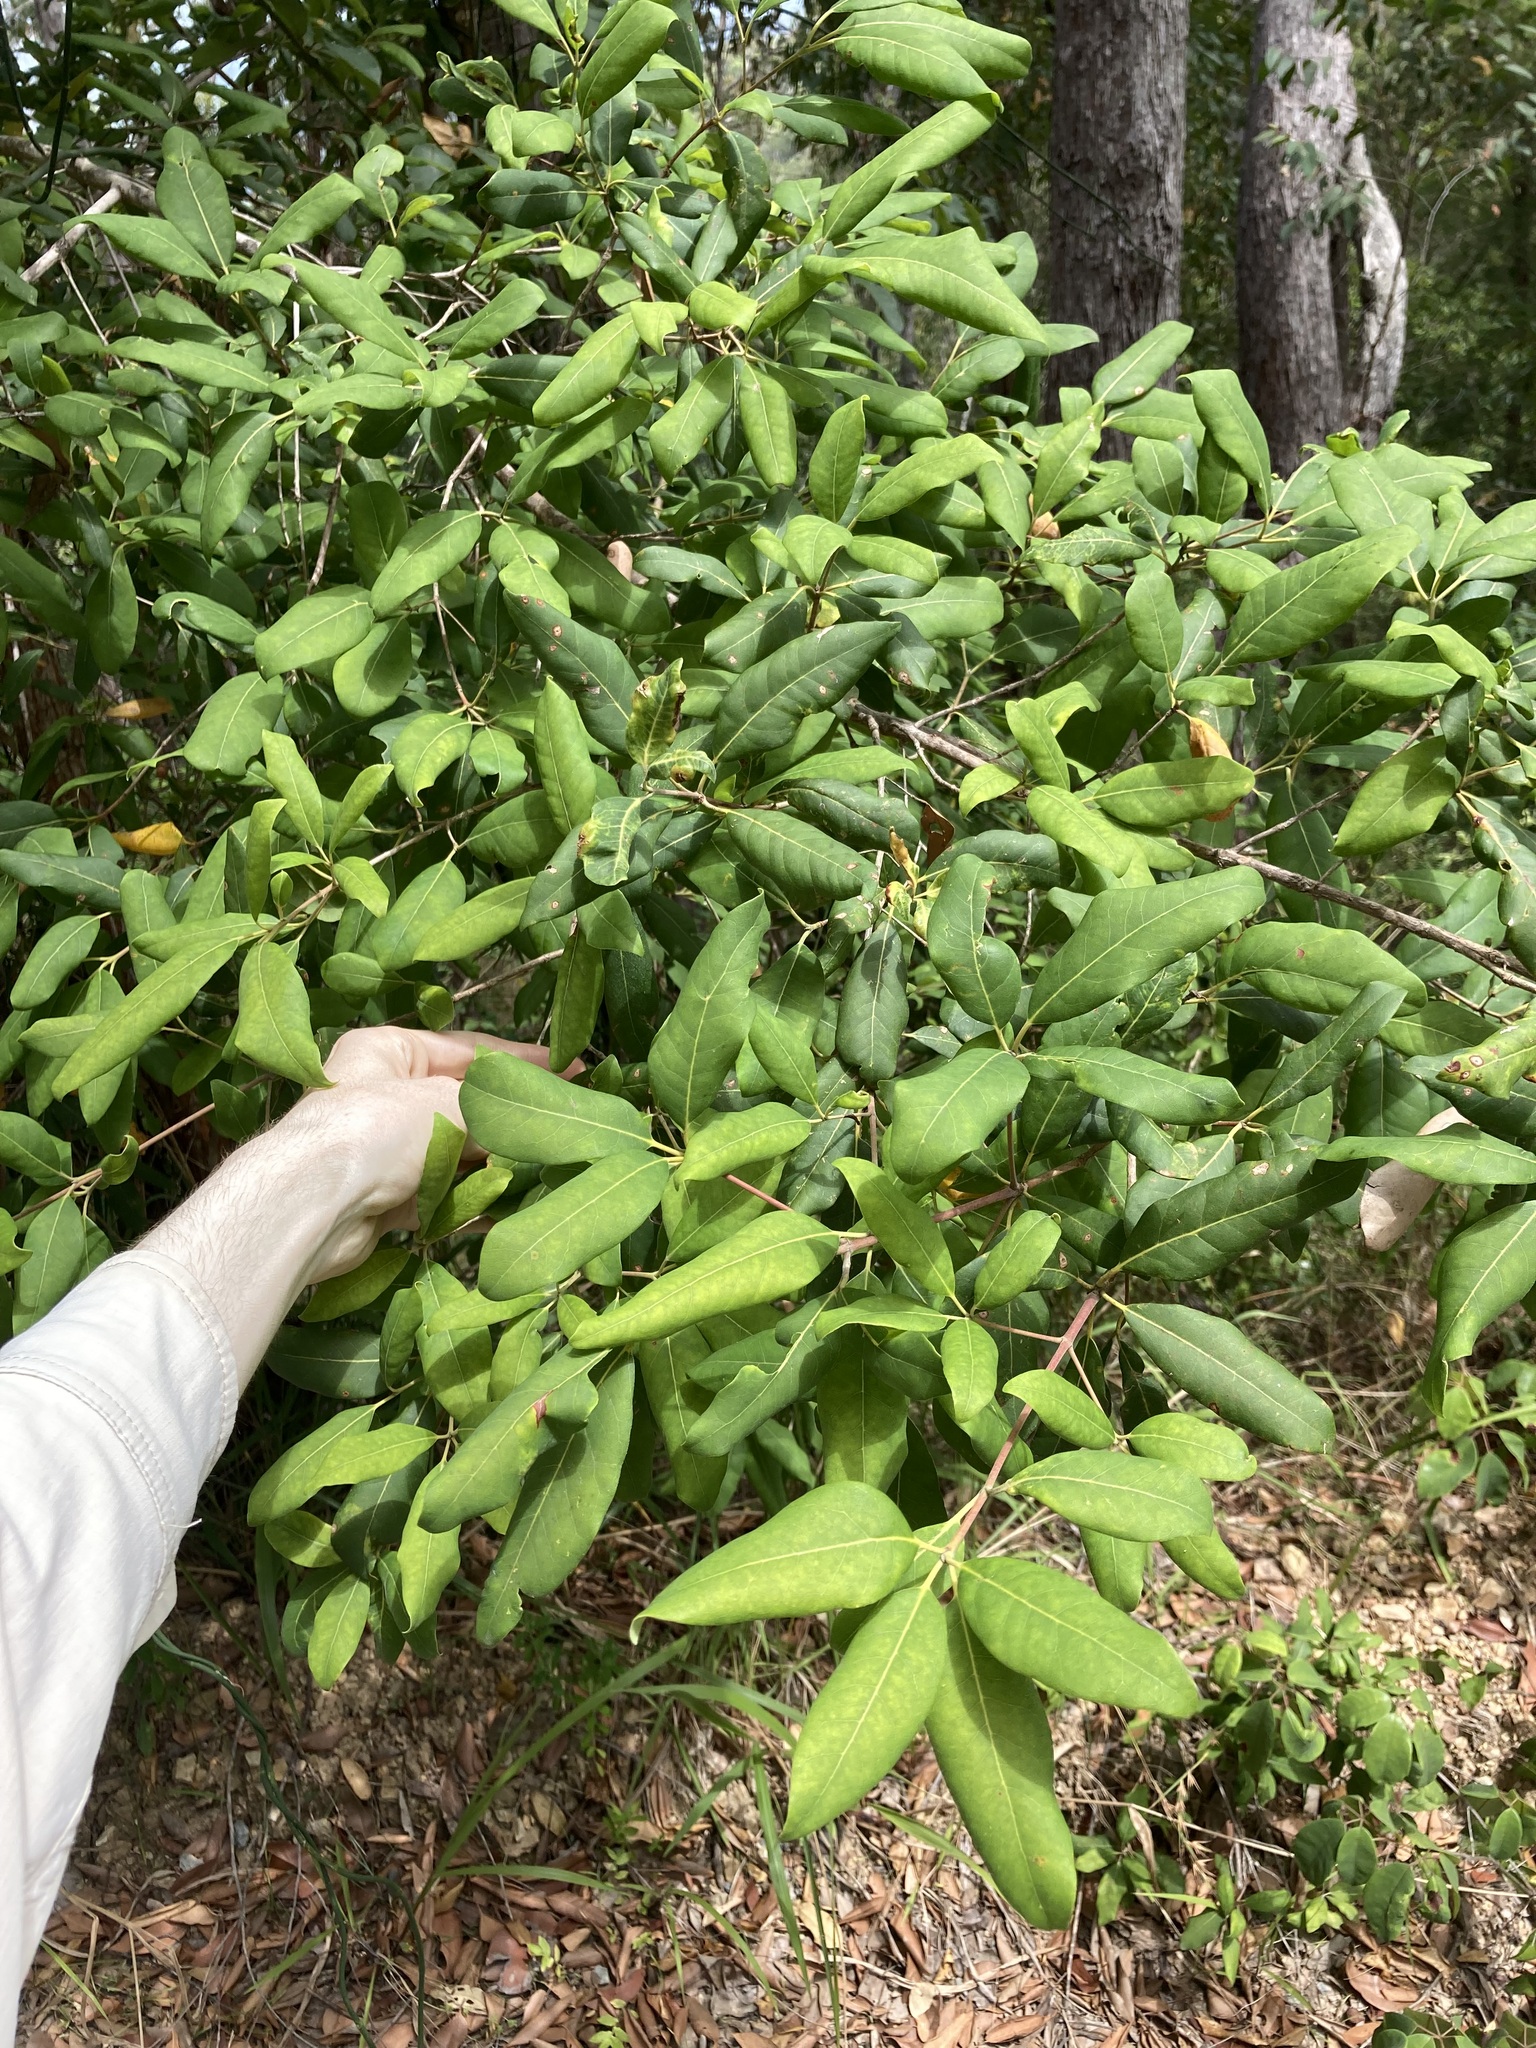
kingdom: Plantae
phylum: Tracheophyta
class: Magnoliopsida
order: Myrtales
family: Myrtaceae
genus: Syncarpia
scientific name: Syncarpia glomulifera
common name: Turpentine tree
